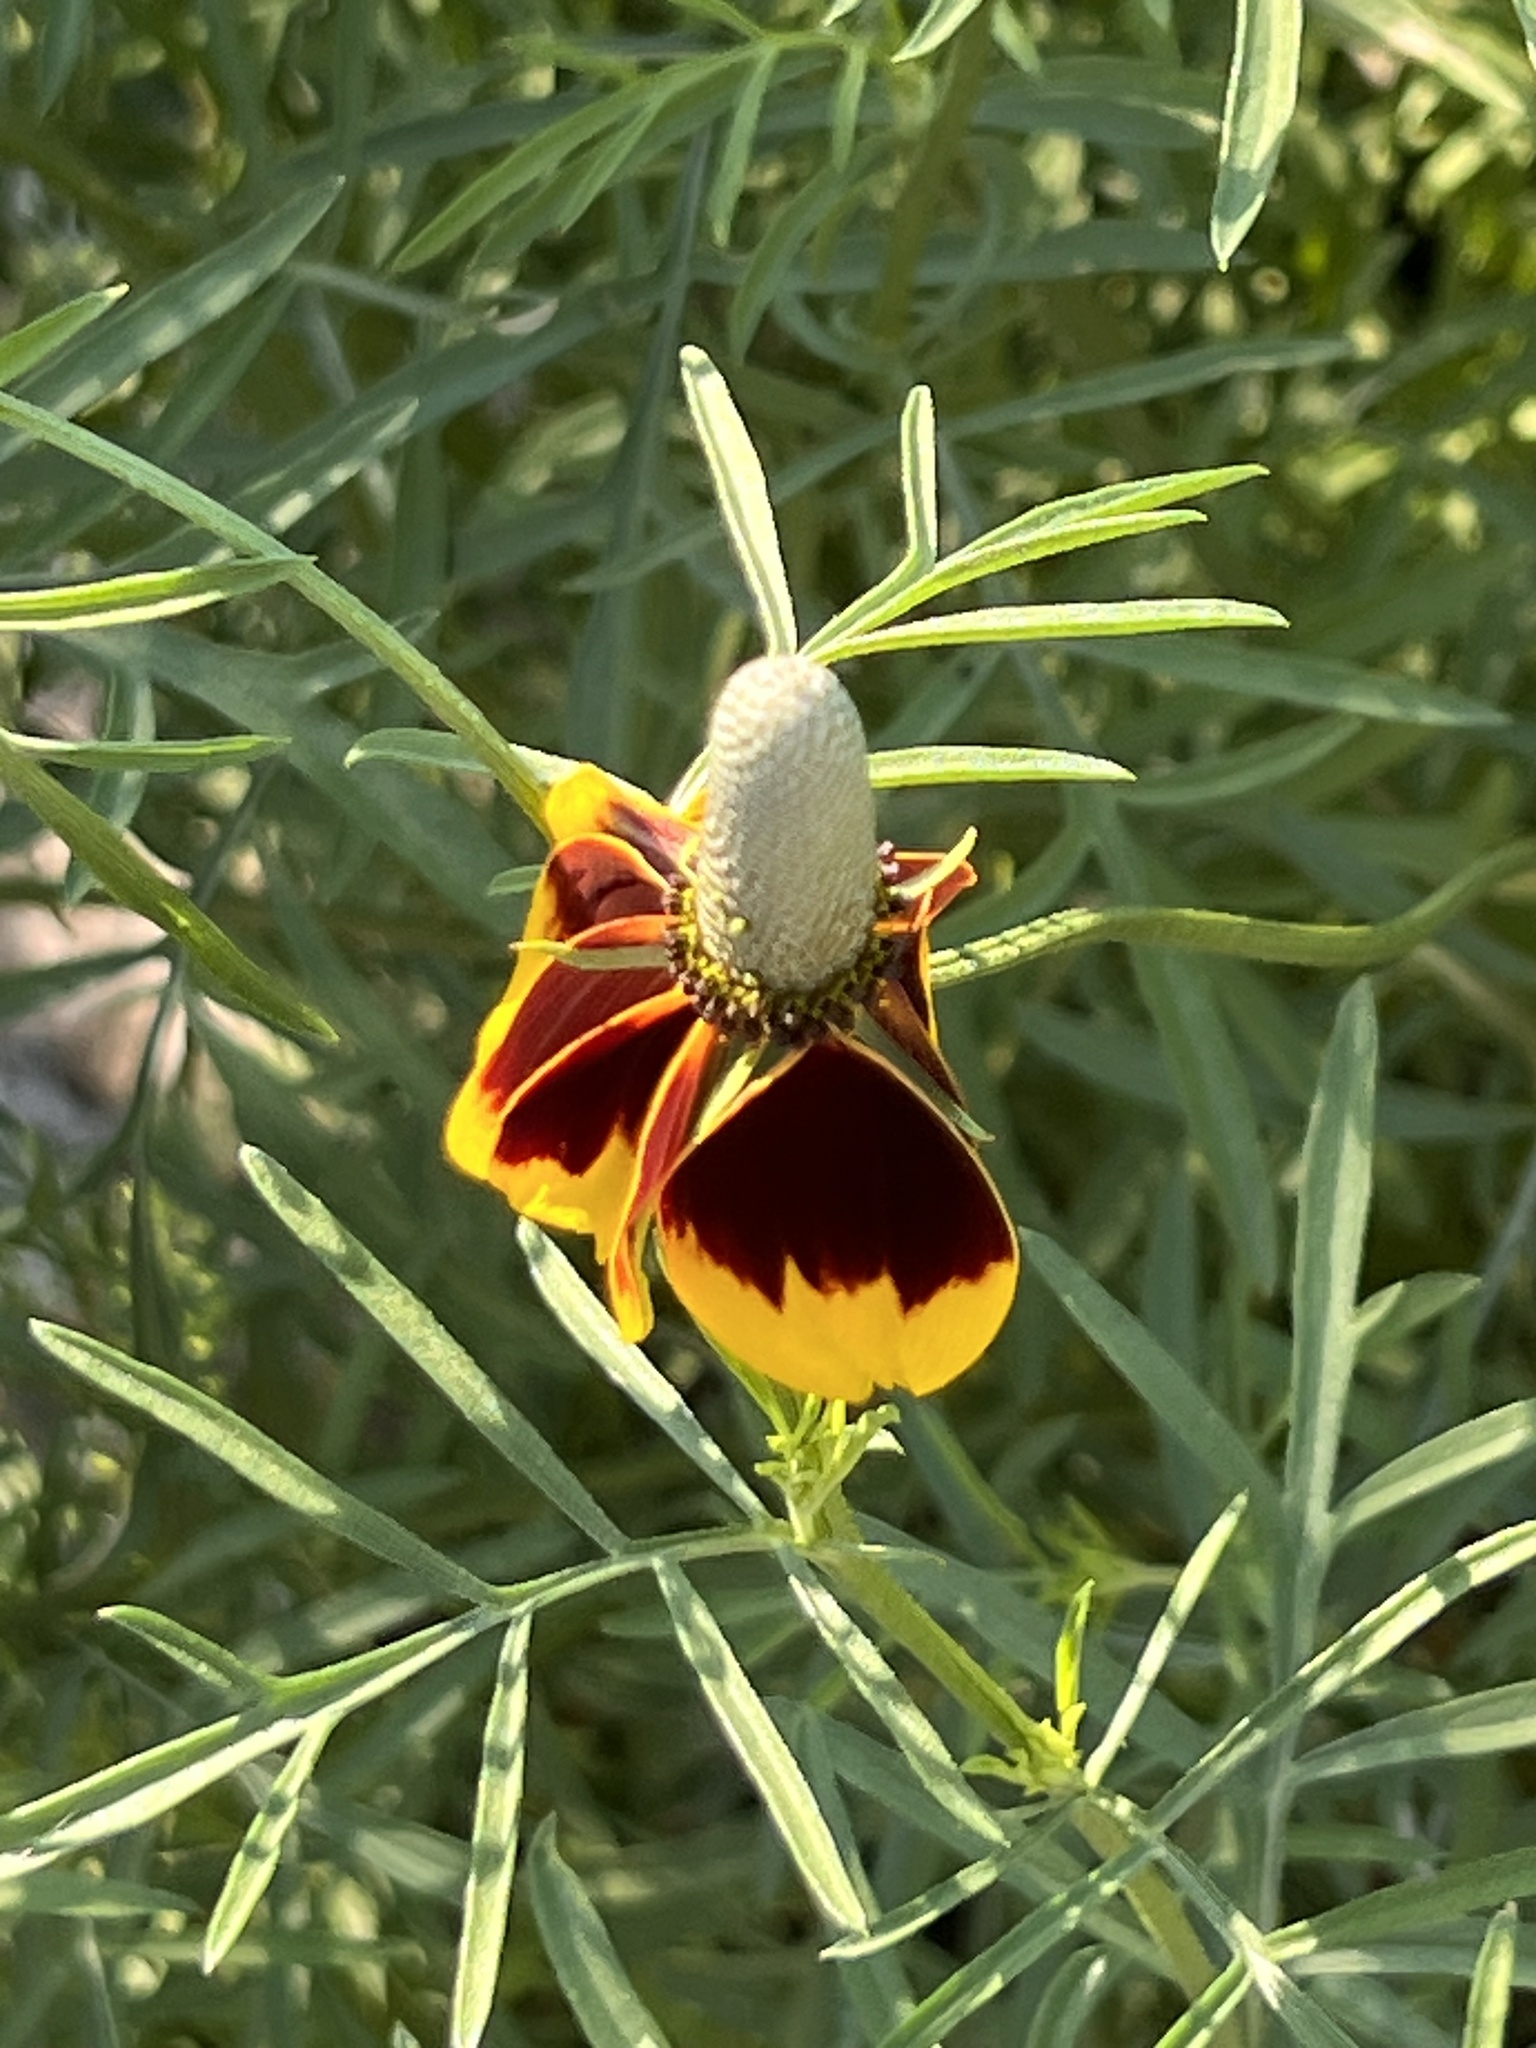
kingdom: Plantae
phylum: Tracheophyta
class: Magnoliopsida
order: Asterales
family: Asteraceae
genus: Ratibida
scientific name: Ratibida columnifera
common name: Prairie coneflower
